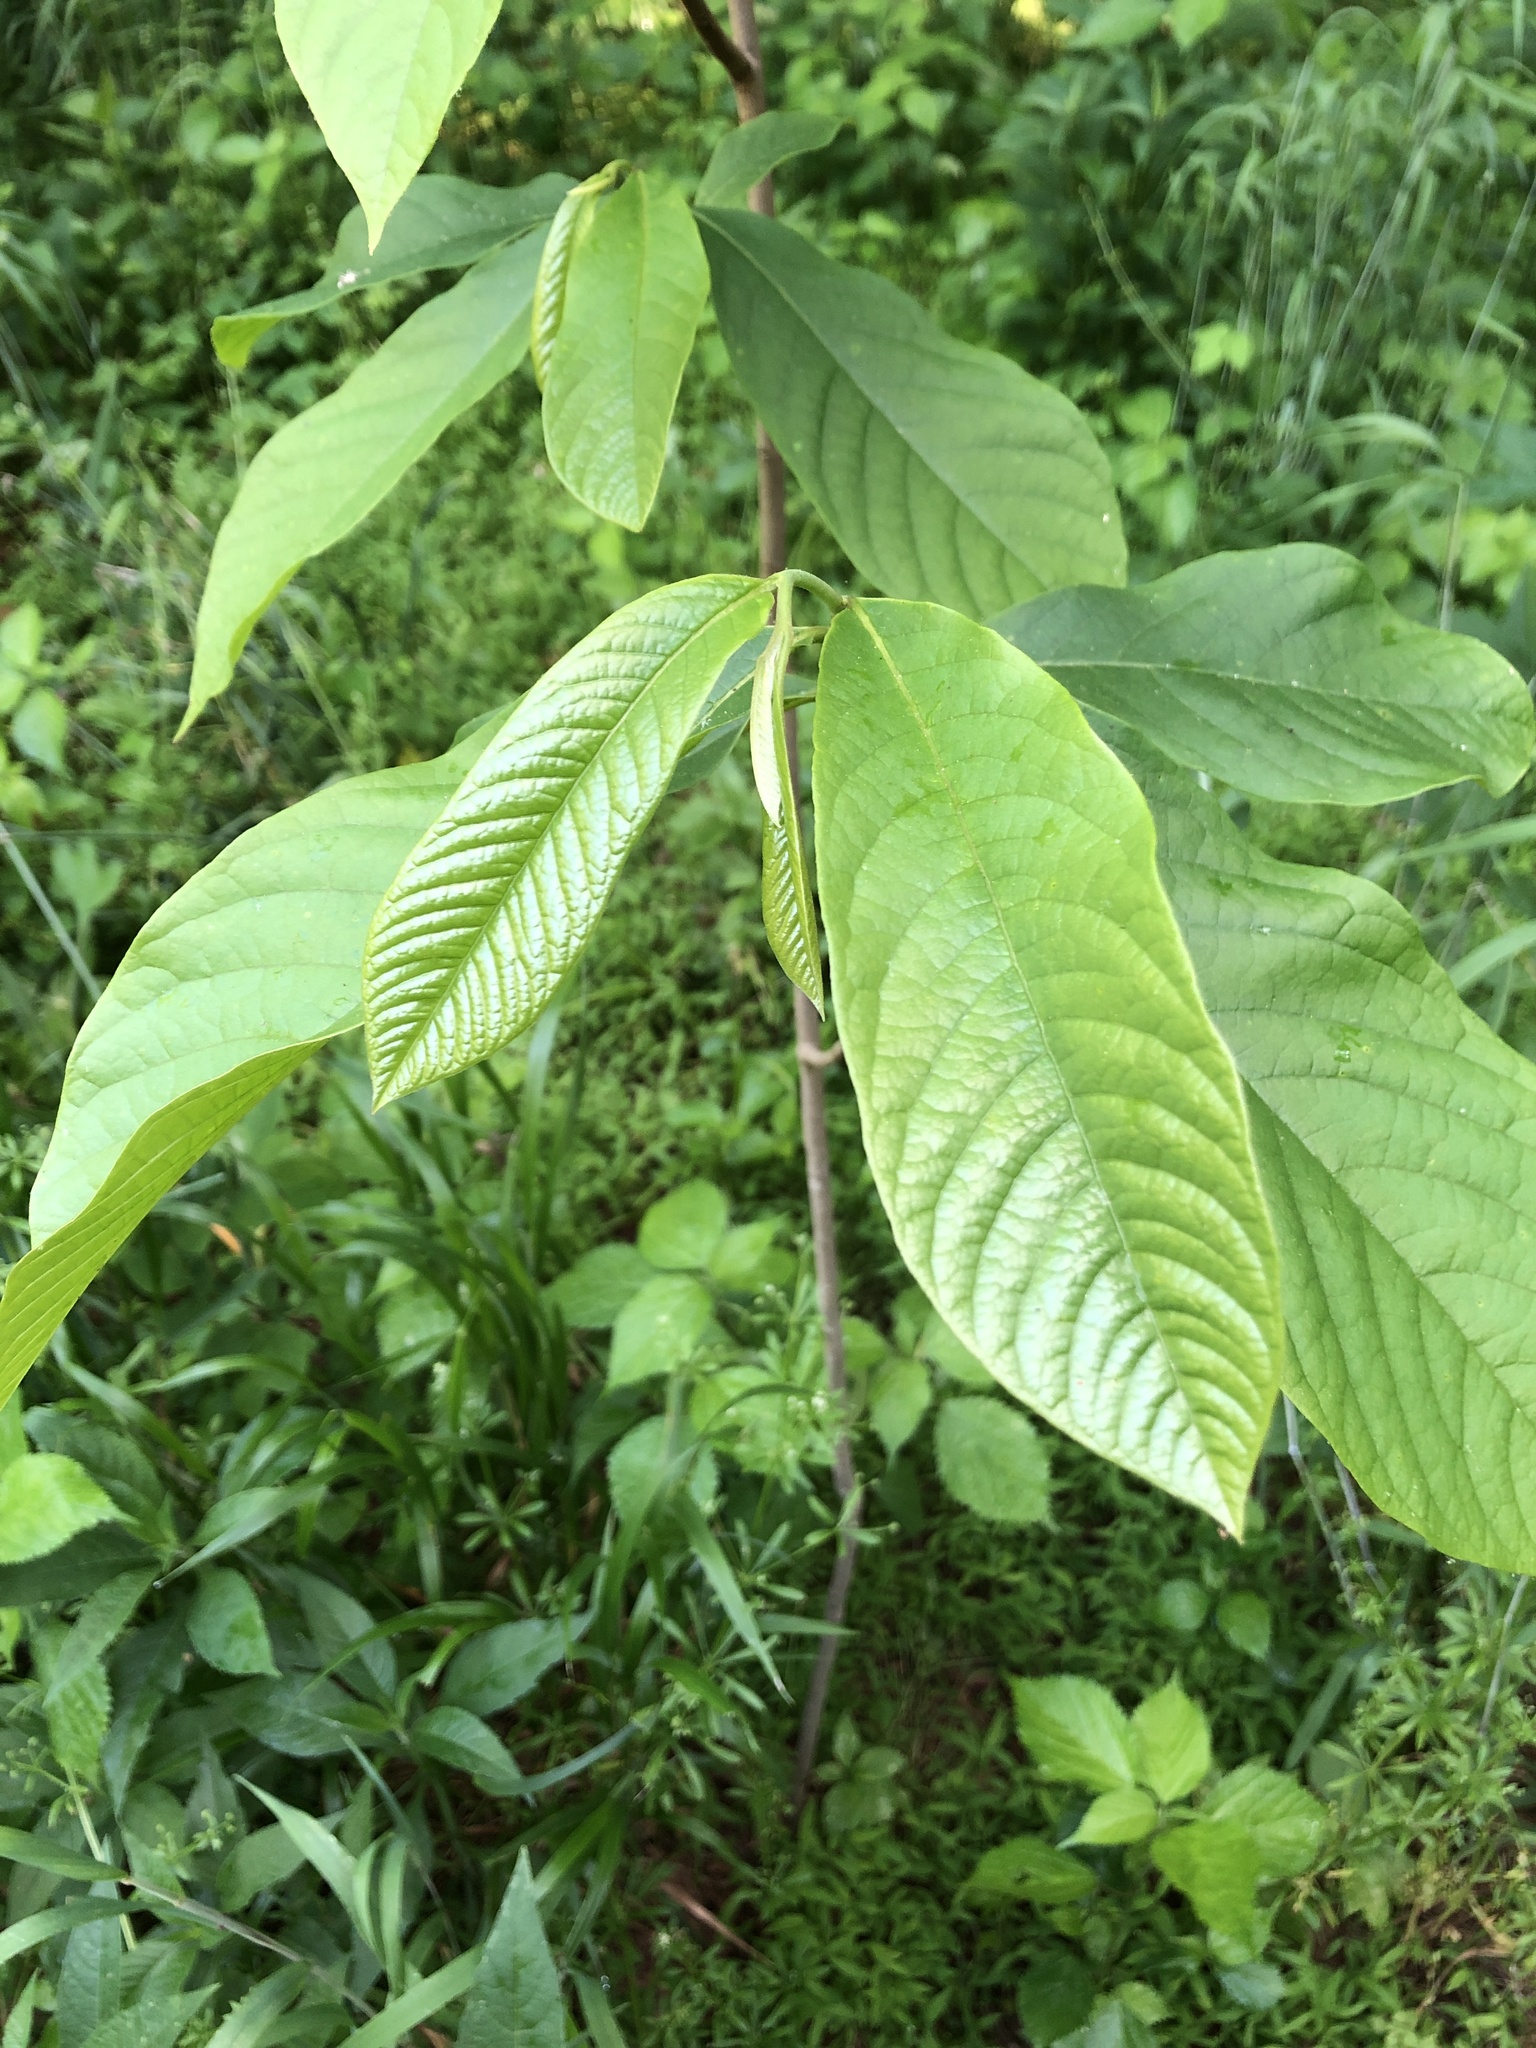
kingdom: Plantae
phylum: Tracheophyta
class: Magnoliopsida
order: Magnoliales
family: Annonaceae
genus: Asimina
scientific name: Asimina triloba
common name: Dog-banana
